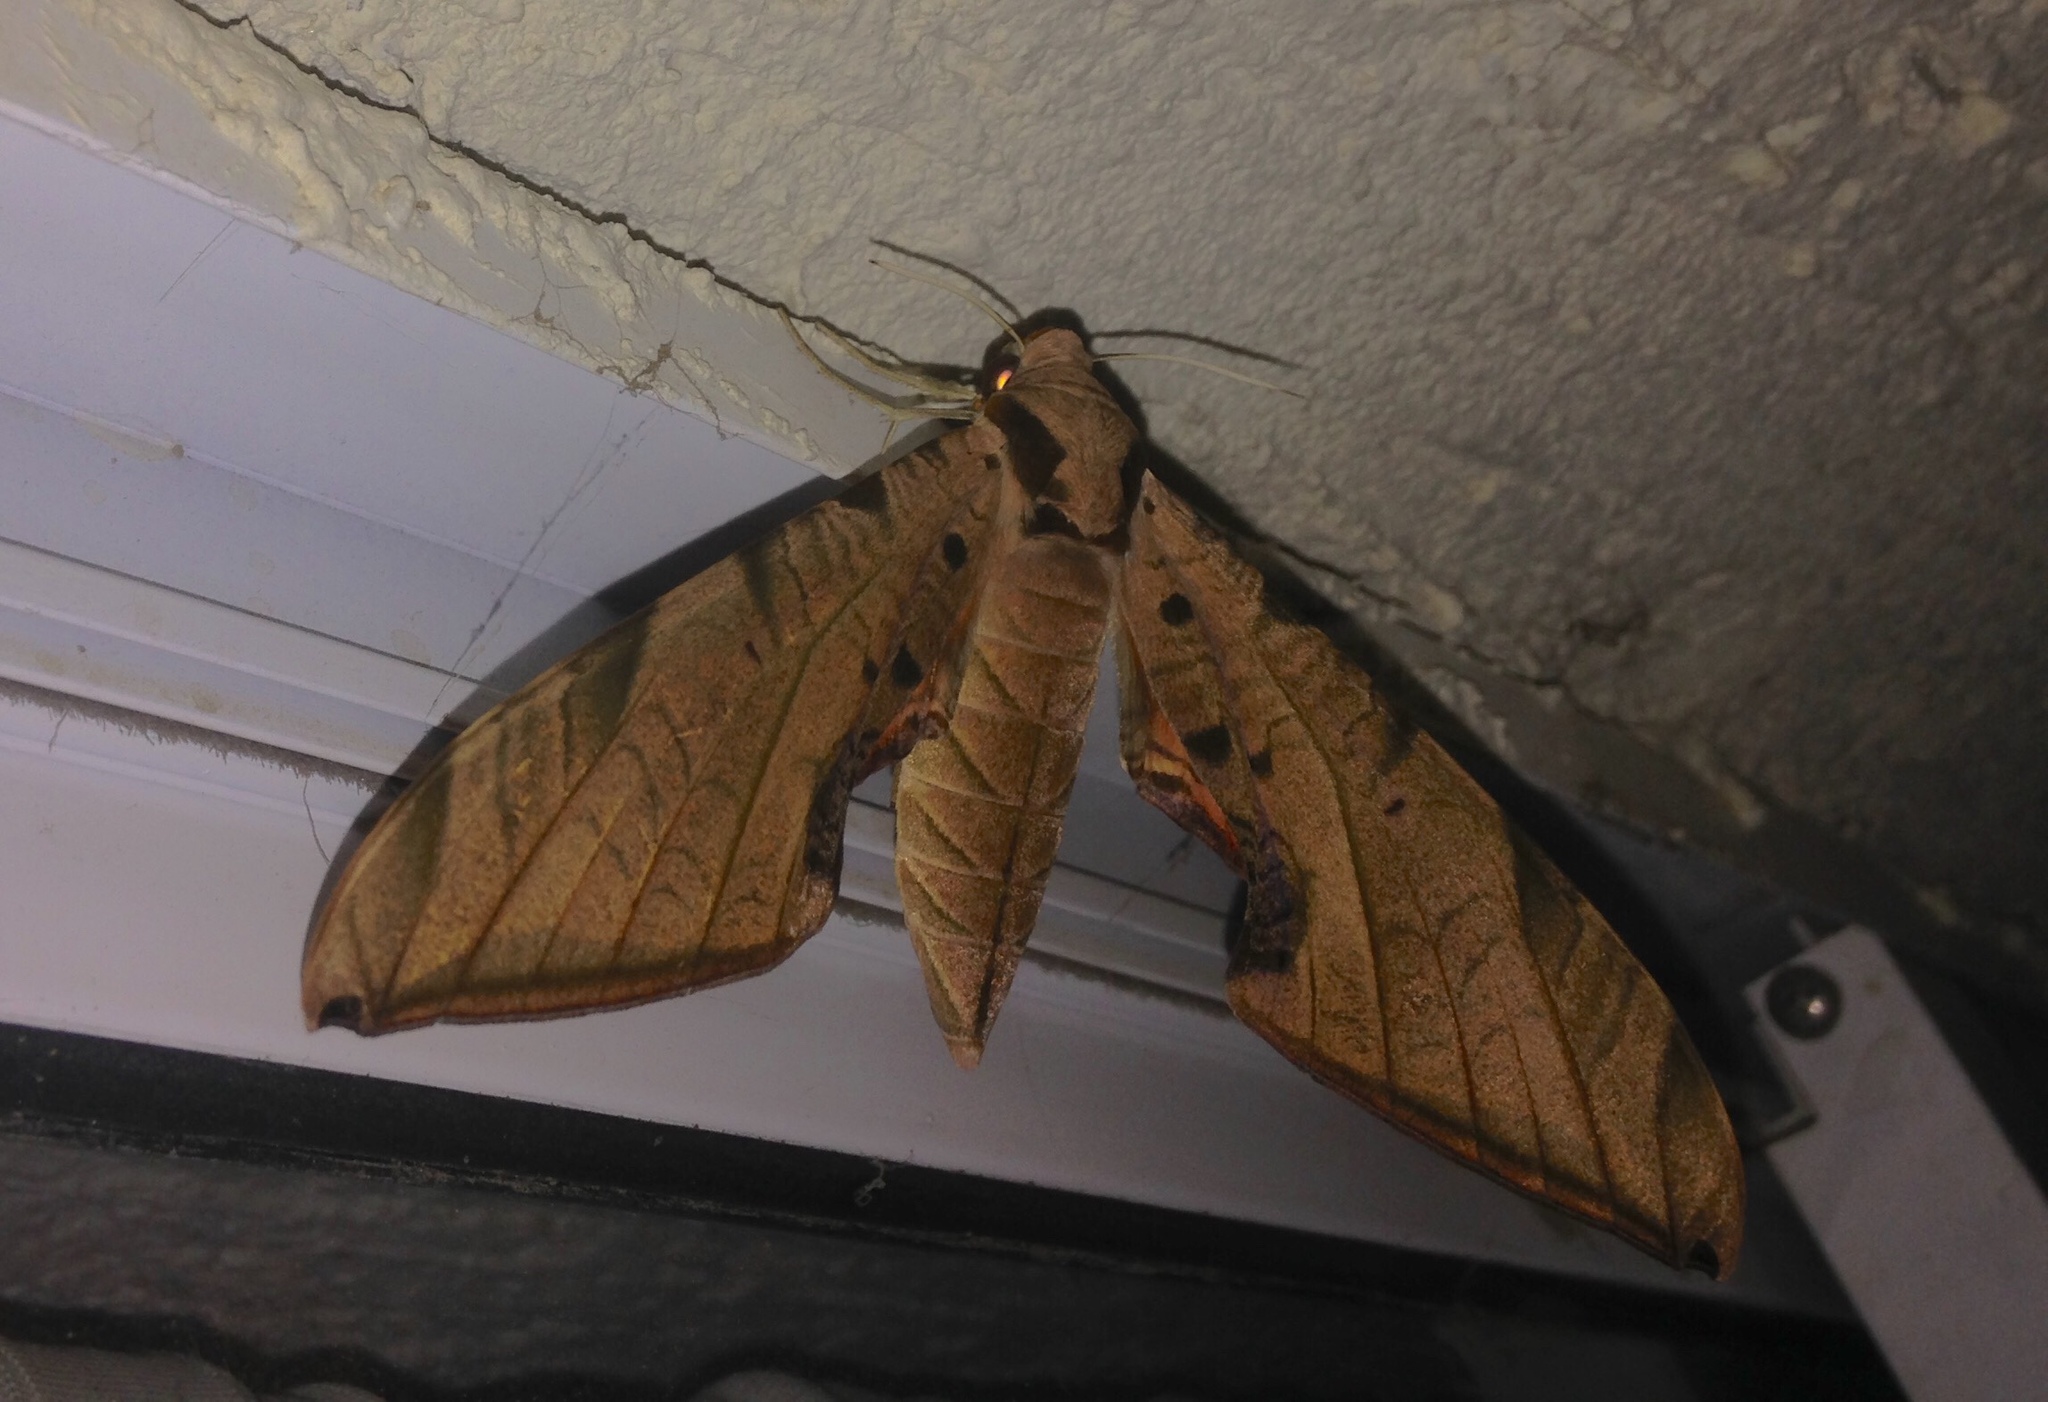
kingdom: Animalia
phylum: Arthropoda
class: Insecta
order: Lepidoptera
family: Sphingidae
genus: Protambulyx
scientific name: Protambulyx strigilis
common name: Streaked sphinx
